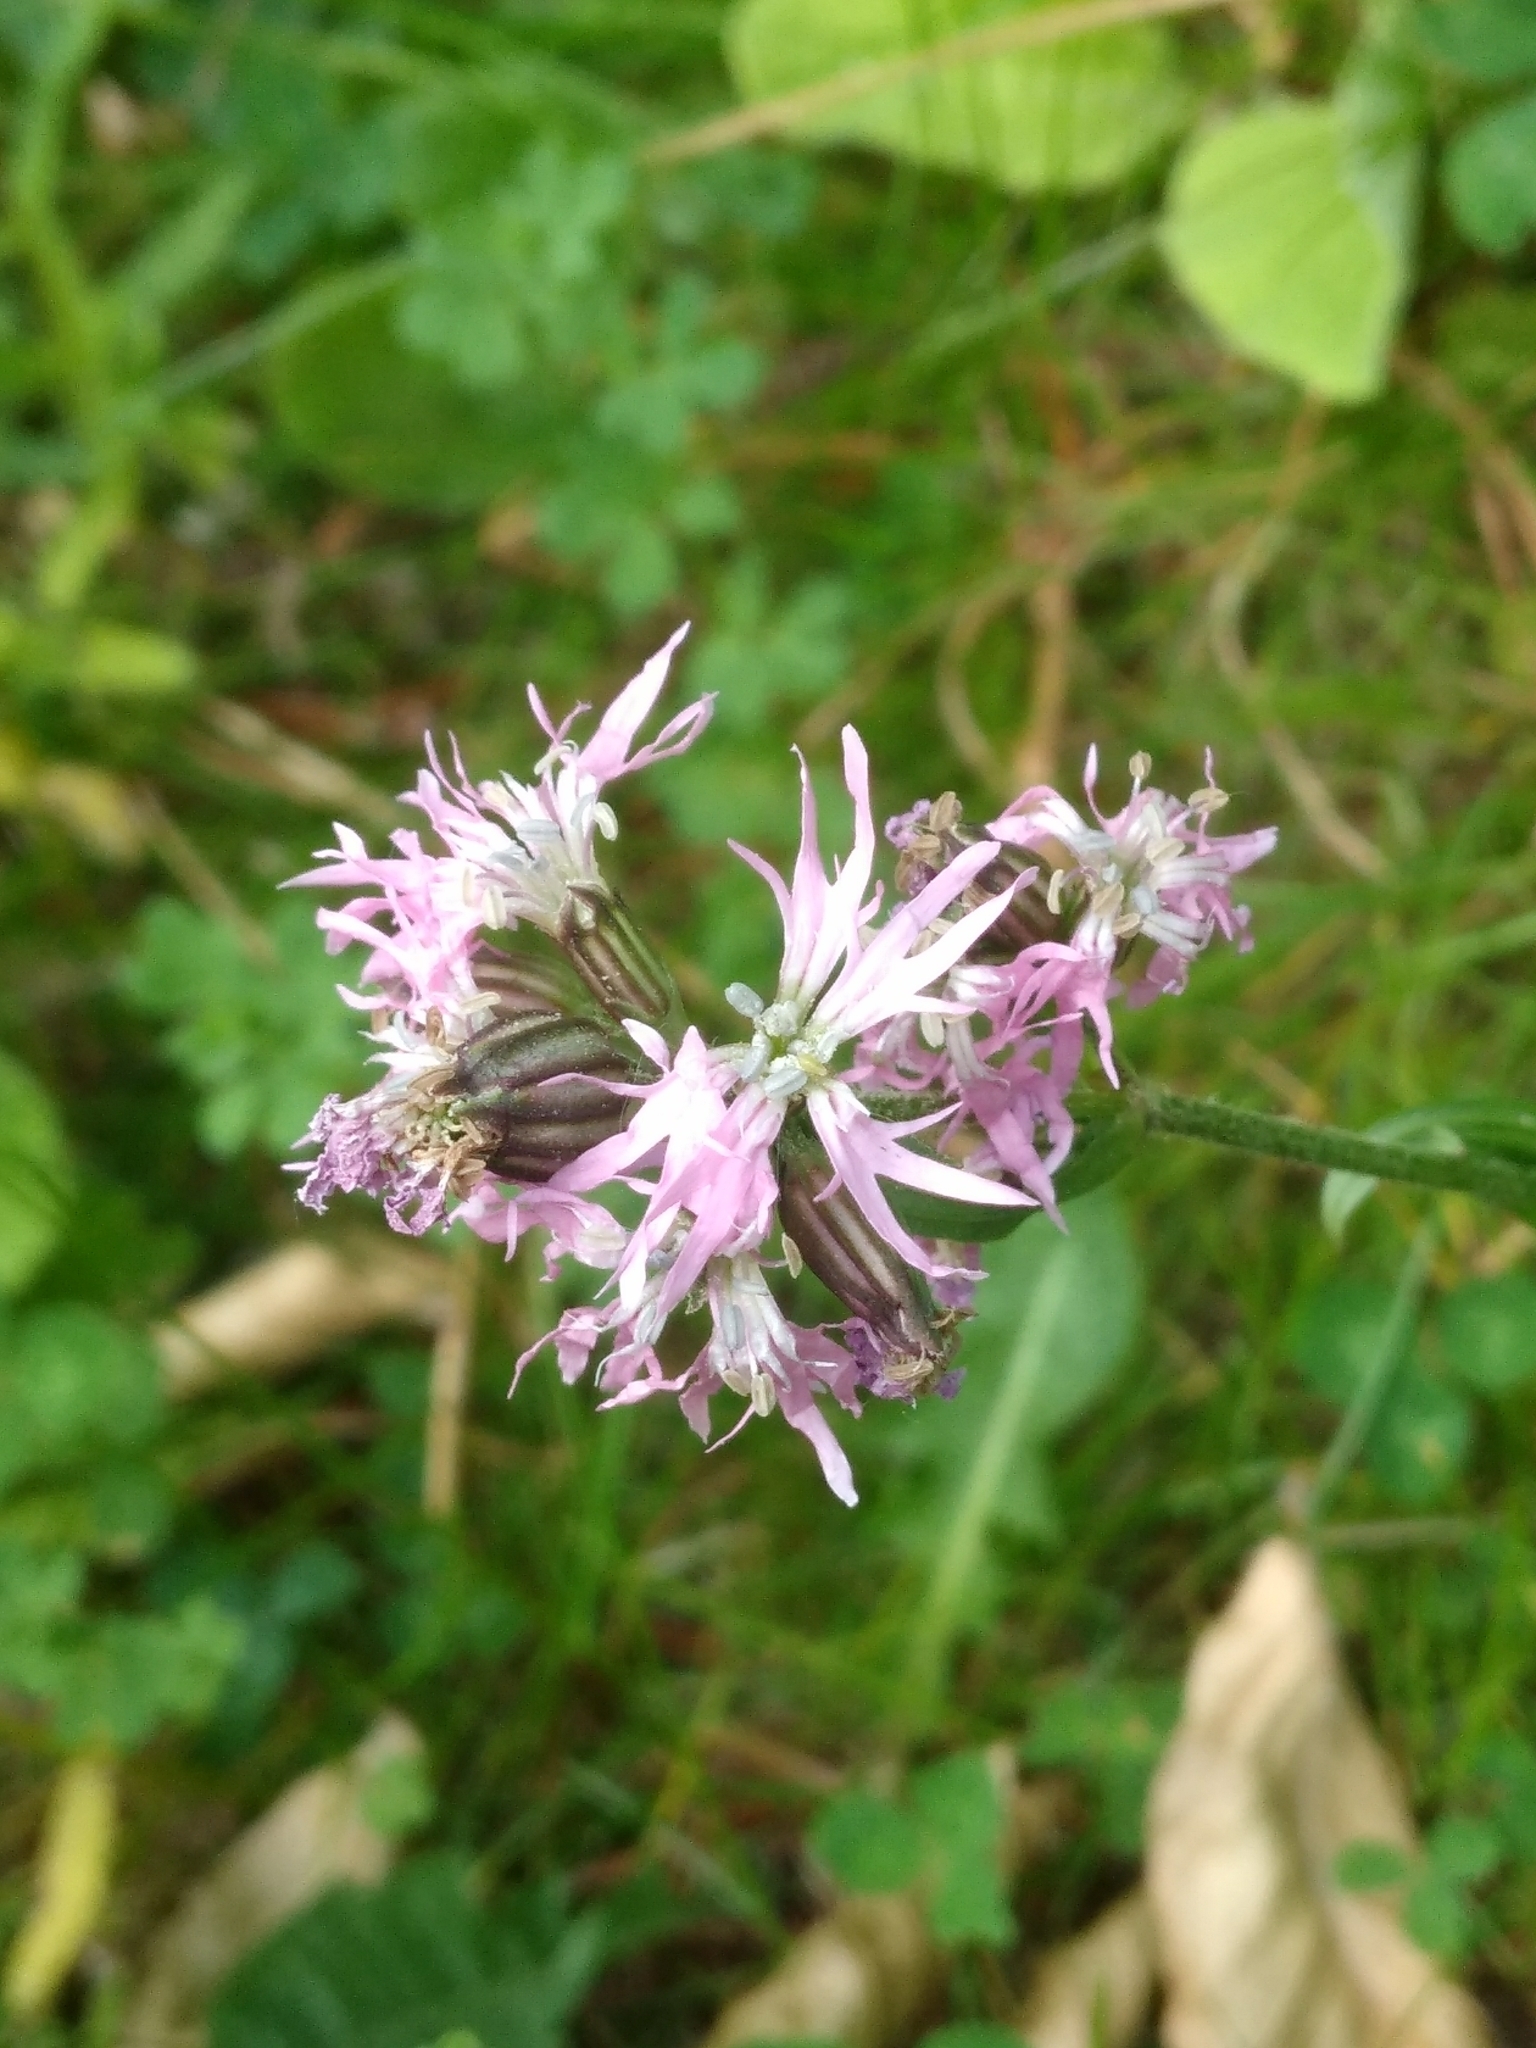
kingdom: Plantae
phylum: Tracheophyta
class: Magnoliopsida
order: Caryophyllales
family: Caryophyllaceae
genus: Silene
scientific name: Silene flos-cuculi
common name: Ragged-robin
